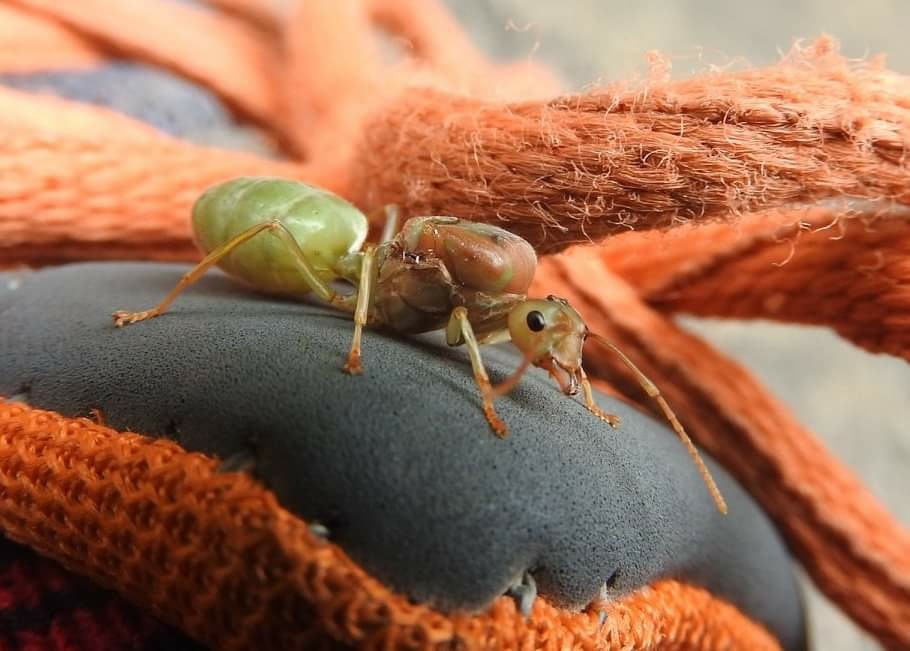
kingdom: Animalia
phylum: Arthropoda
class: Insecta
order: Hymenoptera
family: Formicidae
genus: Oecophylla
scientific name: Oecophylla smaragdina
